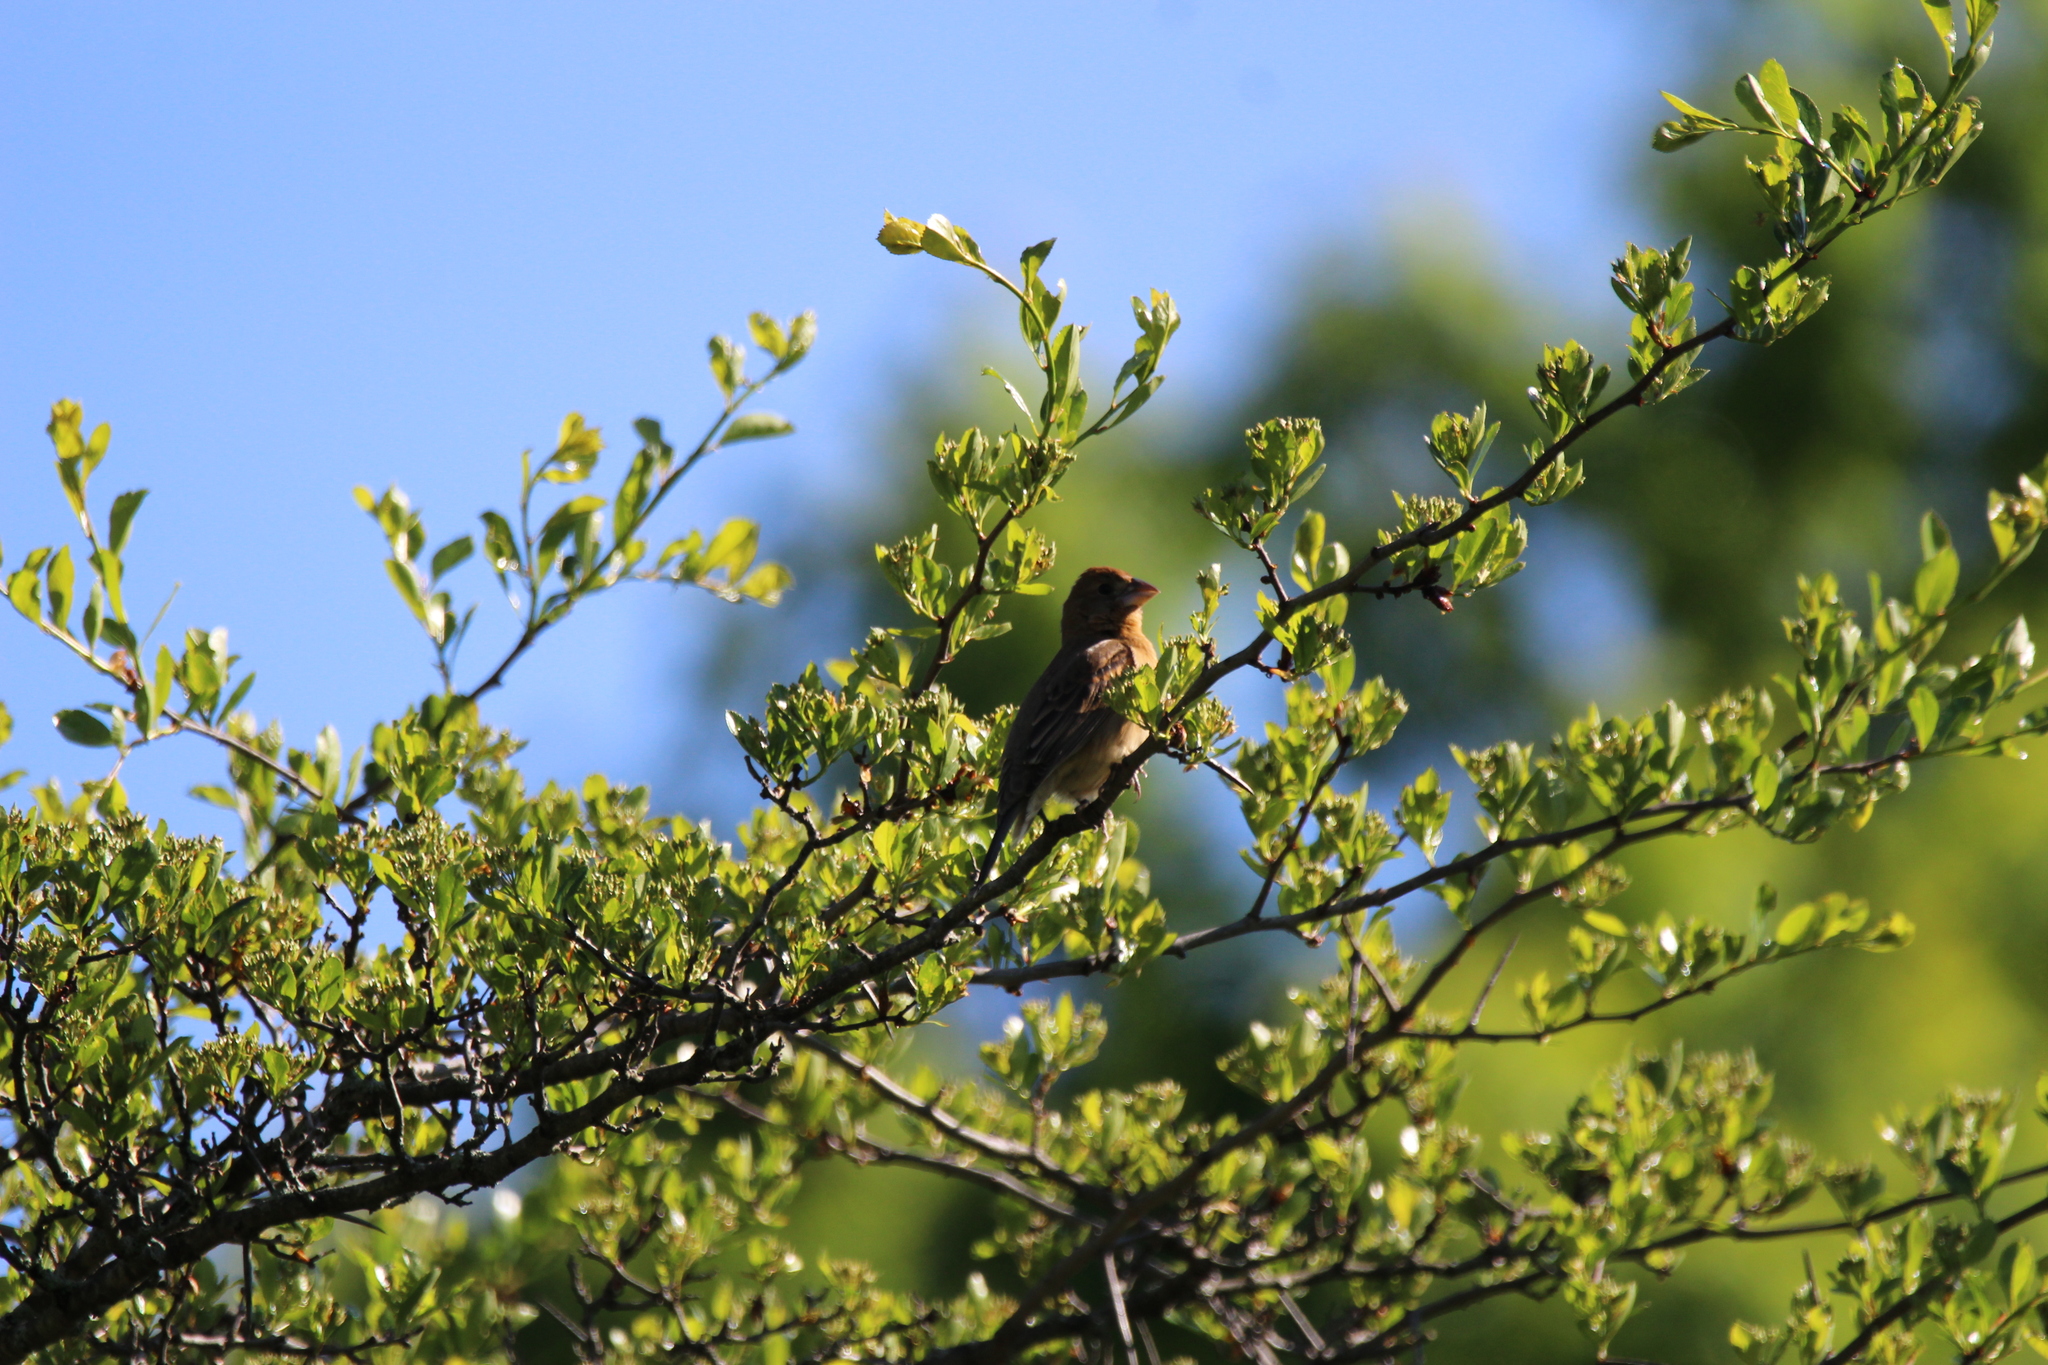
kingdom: Animalia
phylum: Chordata
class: Aves
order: Passeriformes
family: Fringillidae
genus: Haemorhous
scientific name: Haemorhous mexicanus
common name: House finch
